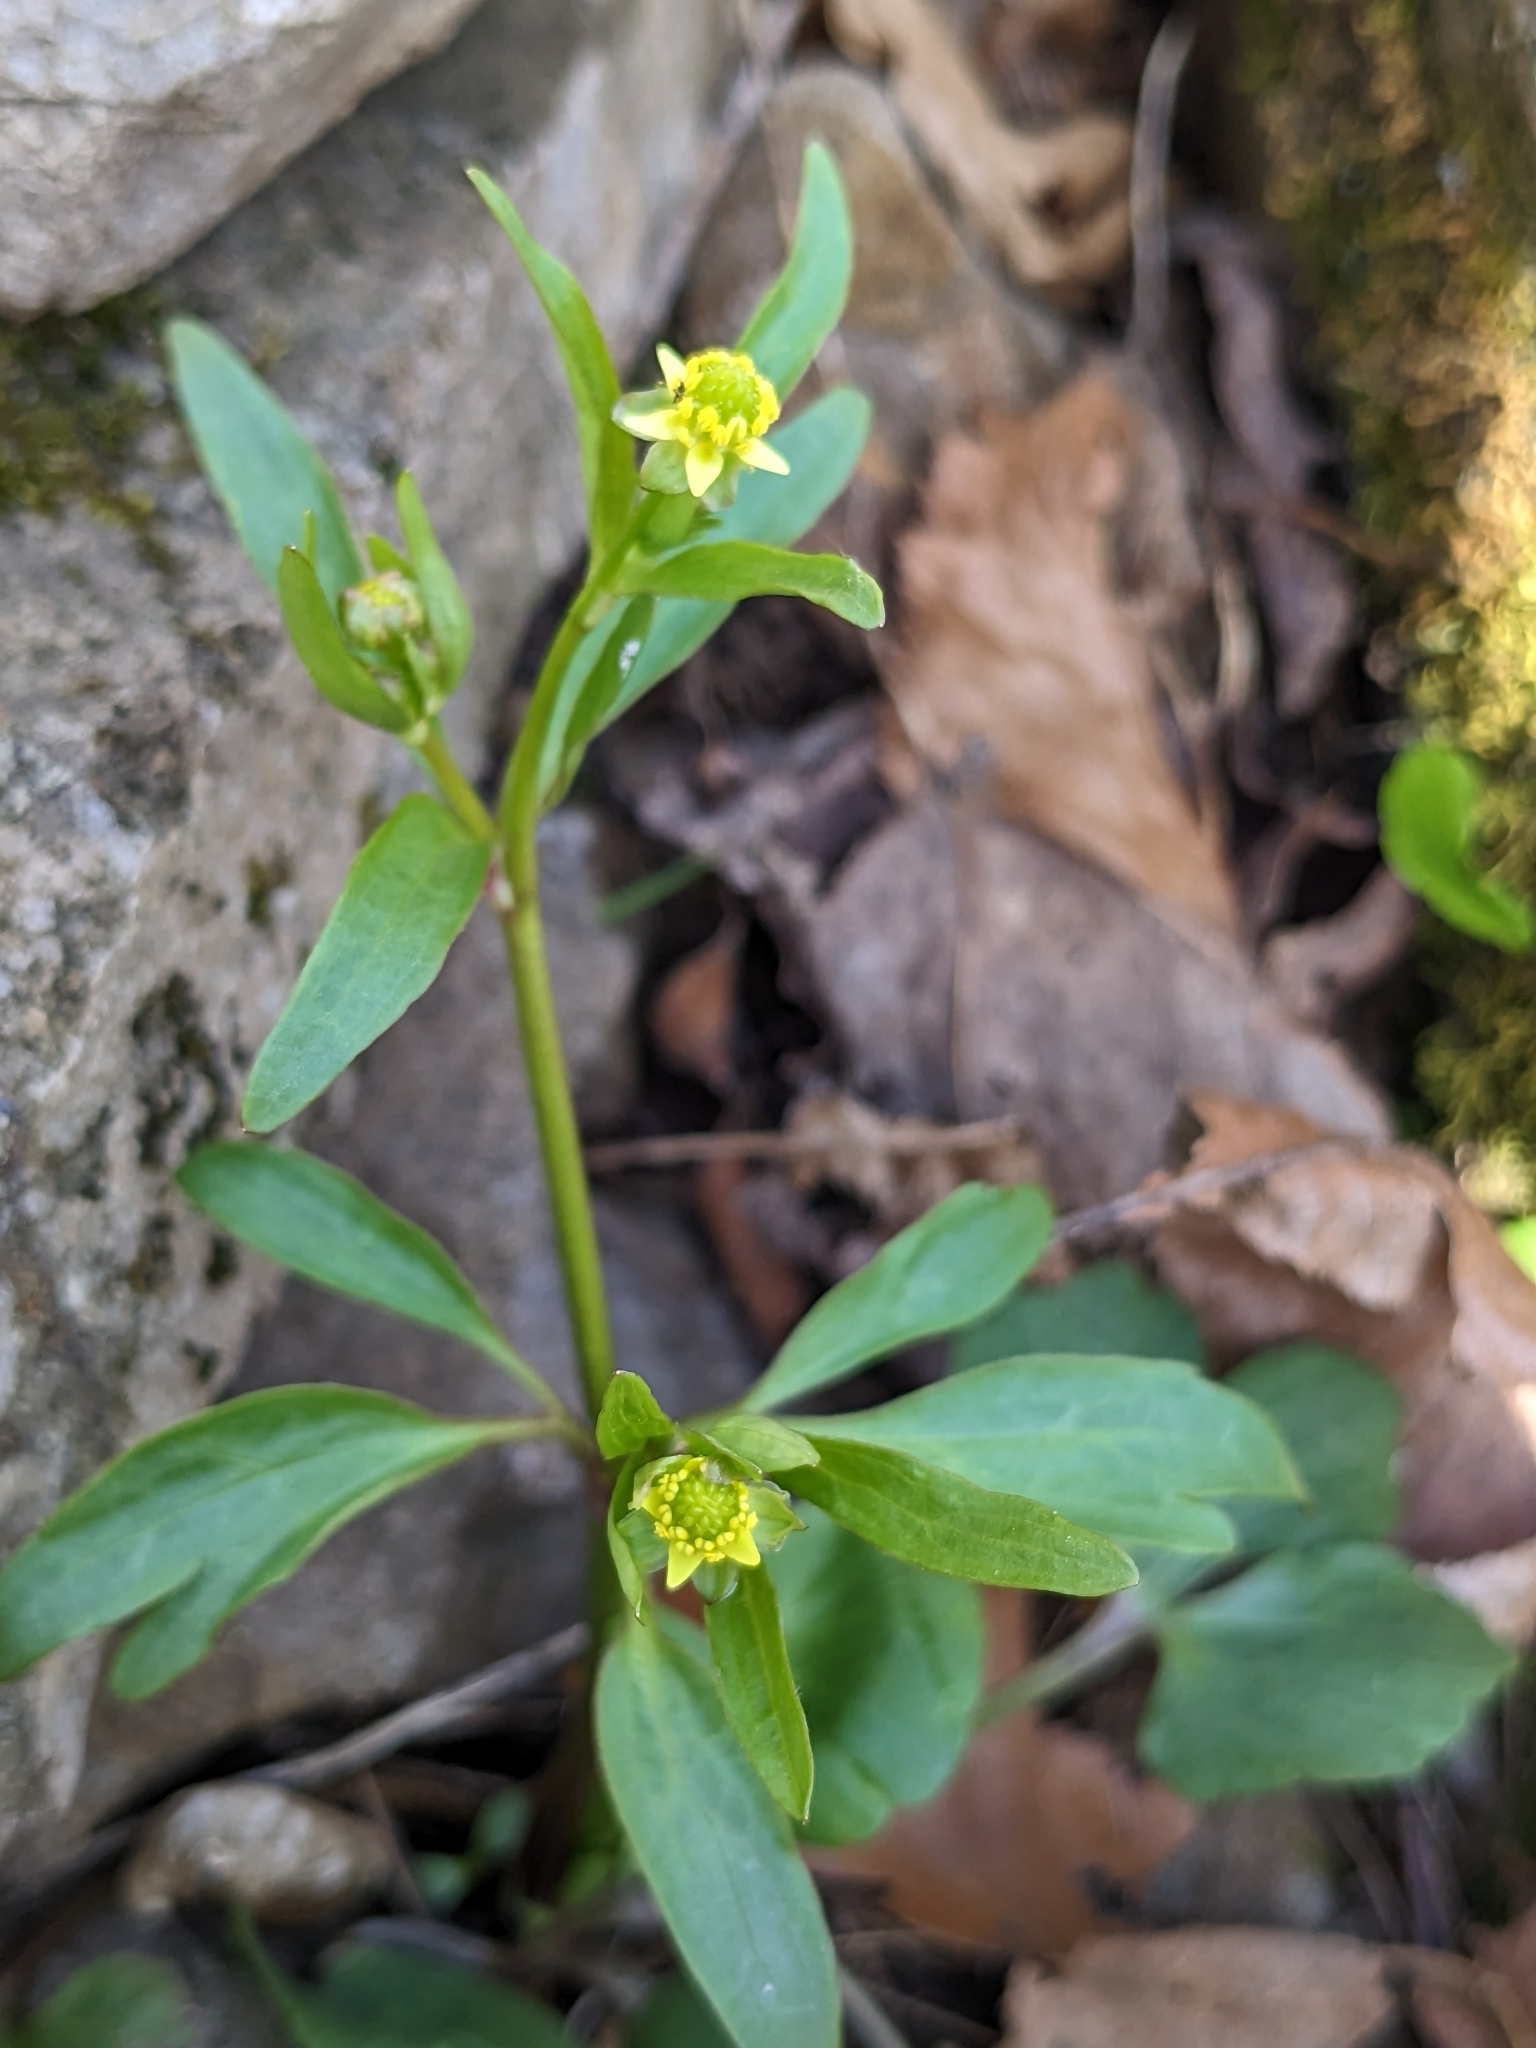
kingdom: Plantae
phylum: Tracheophyta
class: Magnoliopsida
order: Ranunculales
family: Ranunculaceae
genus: Ranunculus
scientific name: Ranunculus abortivus
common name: Early wood buttercup
